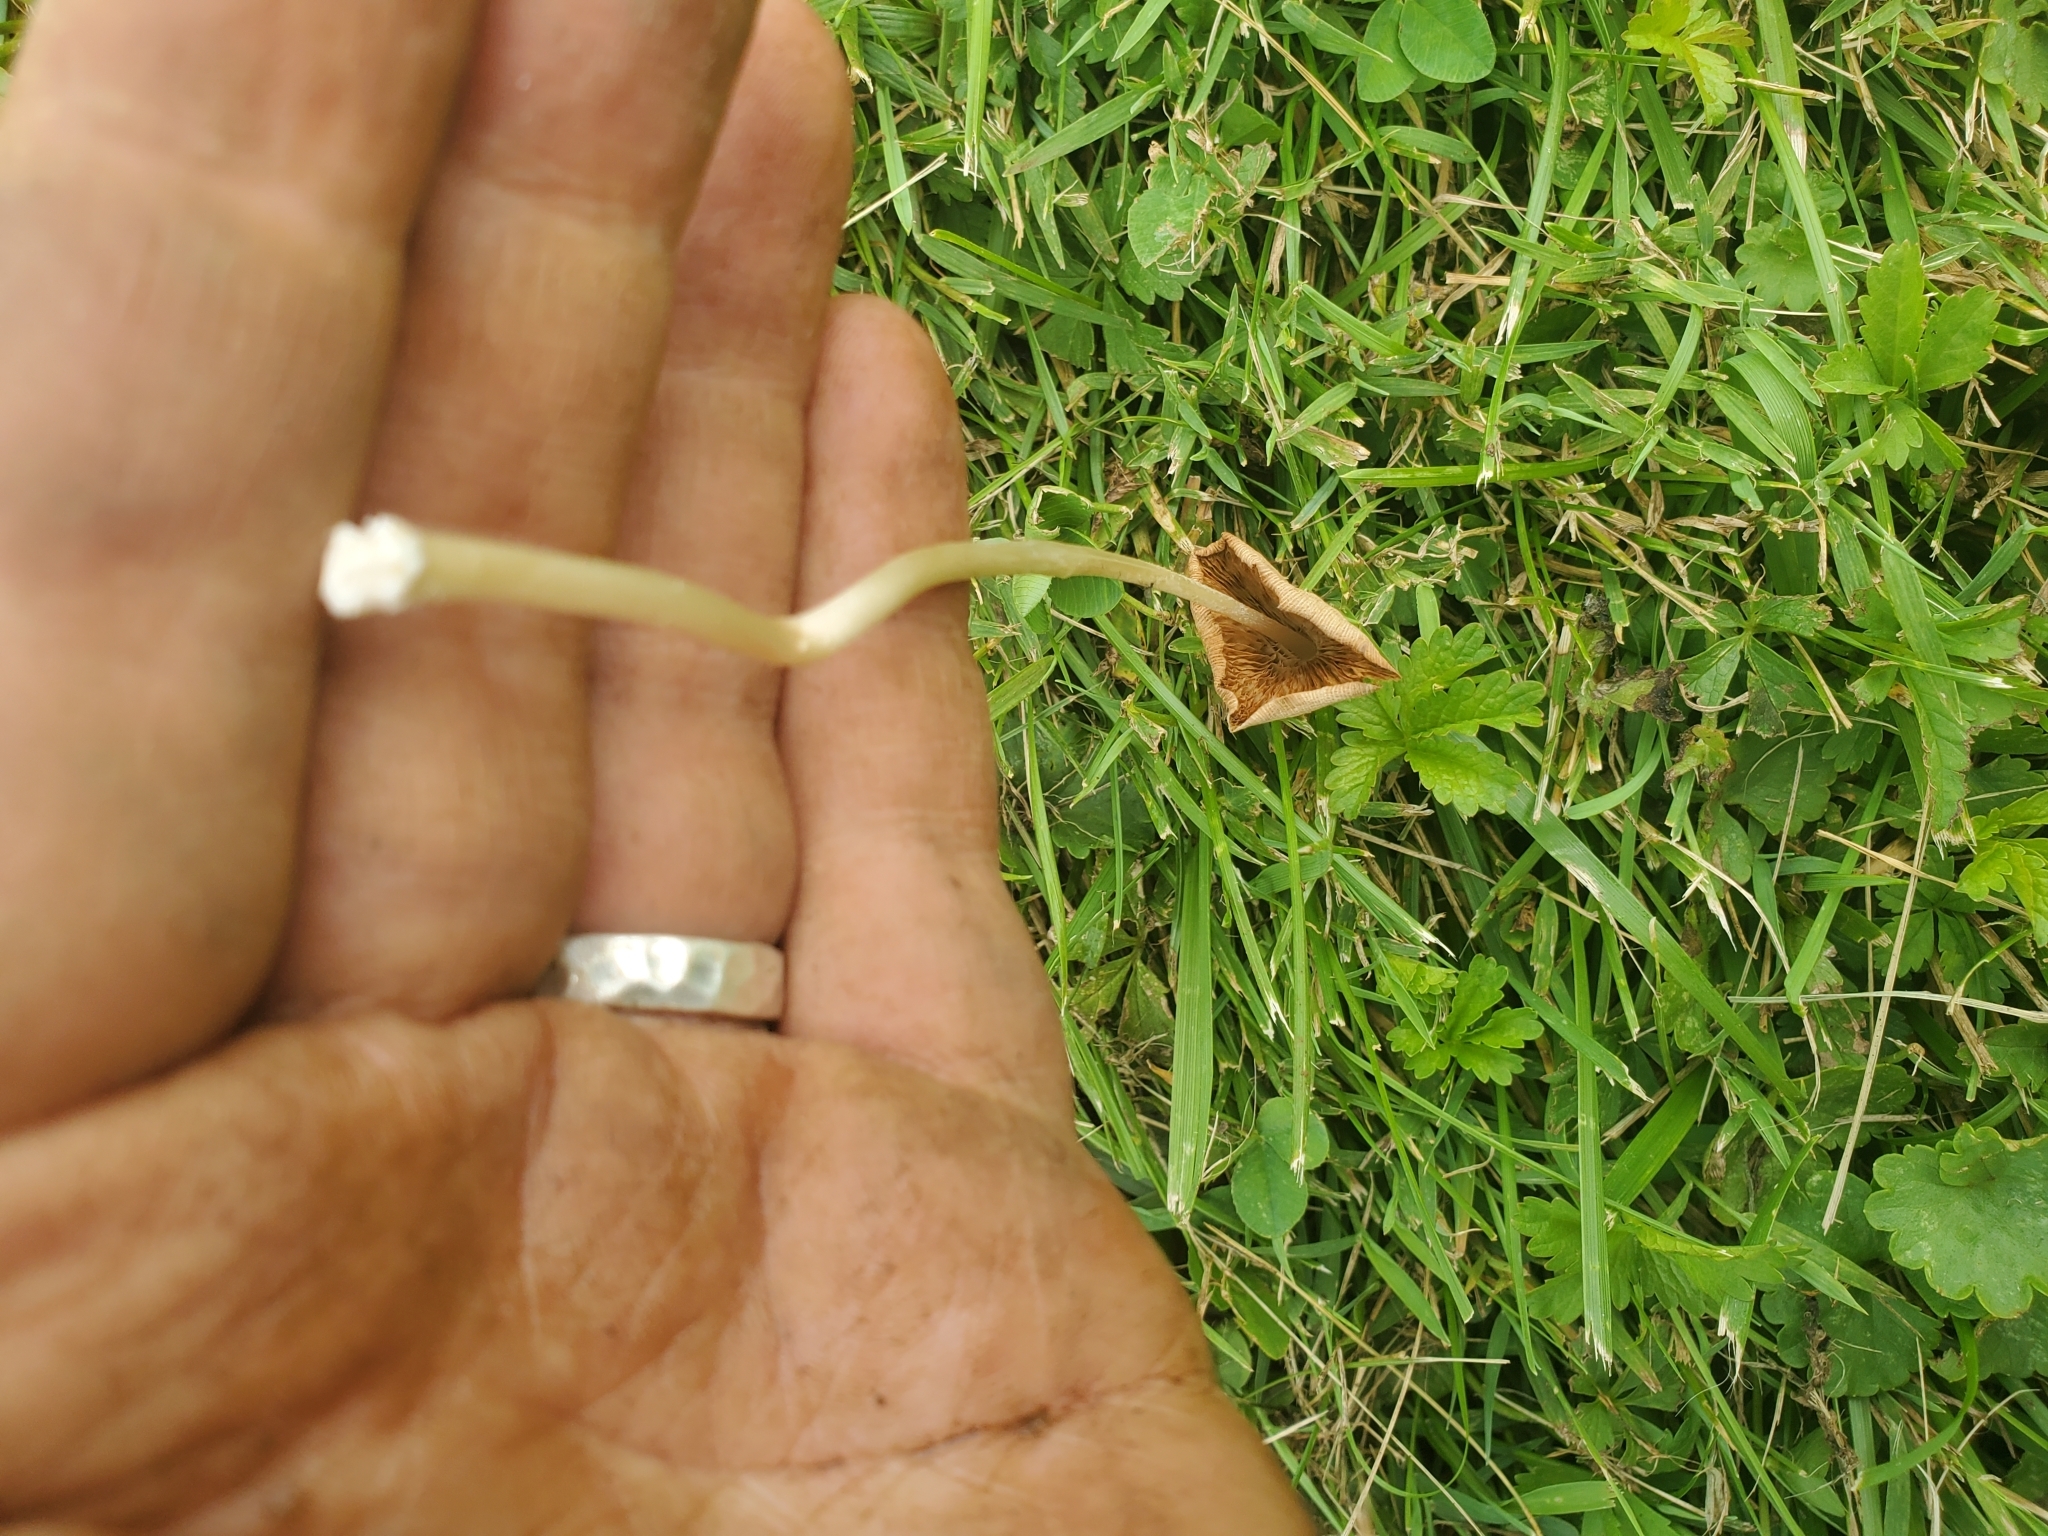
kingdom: Fungi
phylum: Basidiomycota
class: Agaricomycetes
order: Agaricales
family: Bolbitiaceae
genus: Conocybe
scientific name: Conocybe apala
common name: Milky conecap
